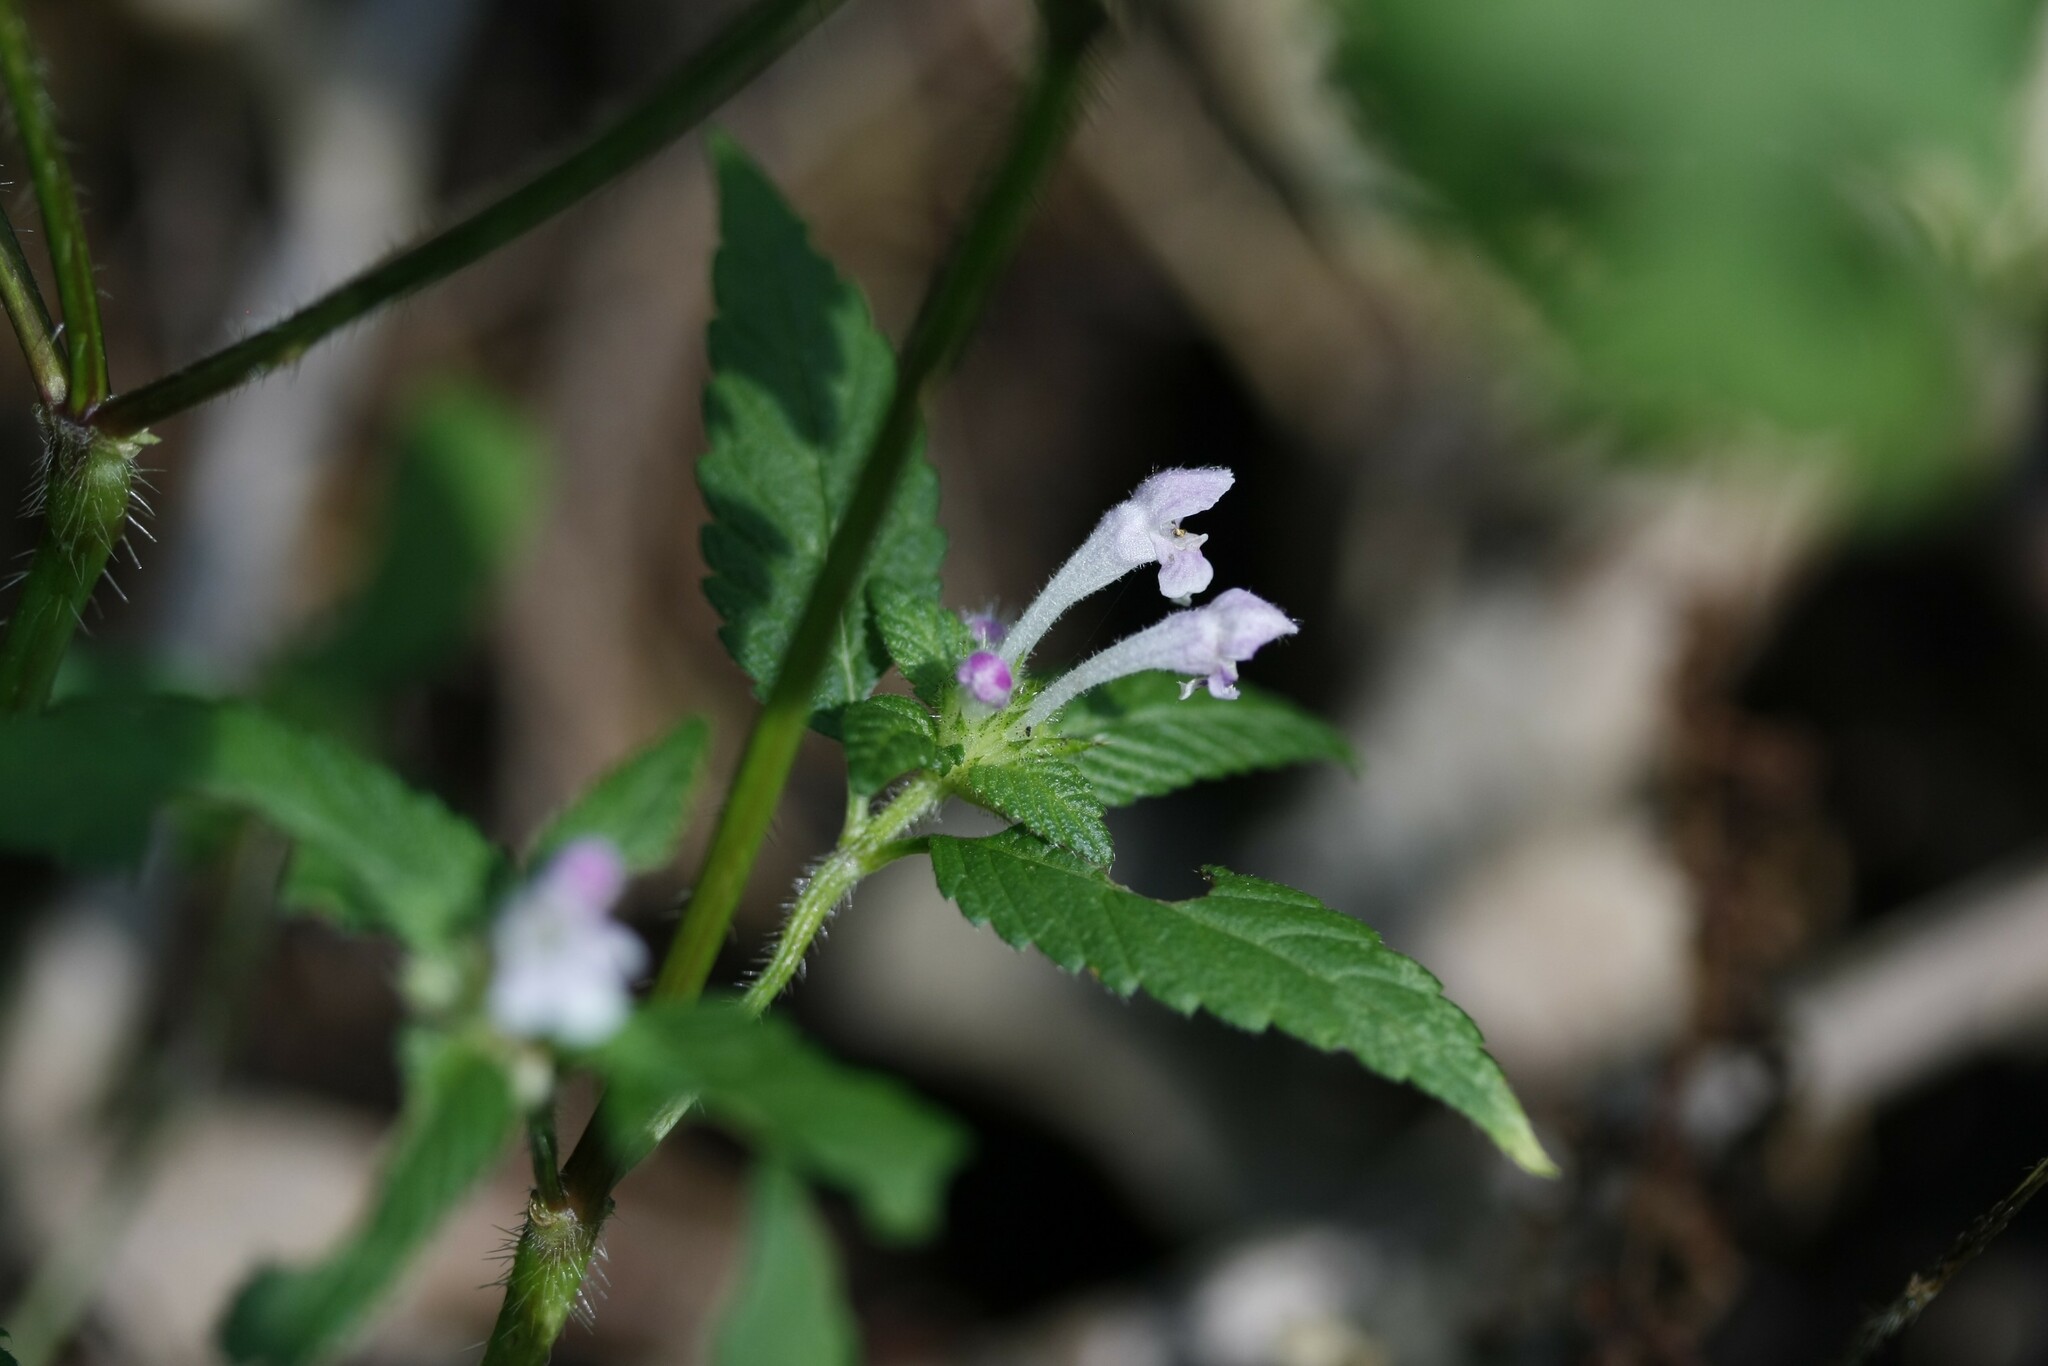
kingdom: Plantae
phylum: Tracheophyta
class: Magnoliopsida
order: Lamiales
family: Lamiaceae
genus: Galeopsis
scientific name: Galeopsis tetrahit
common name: Common hemp-nettle
